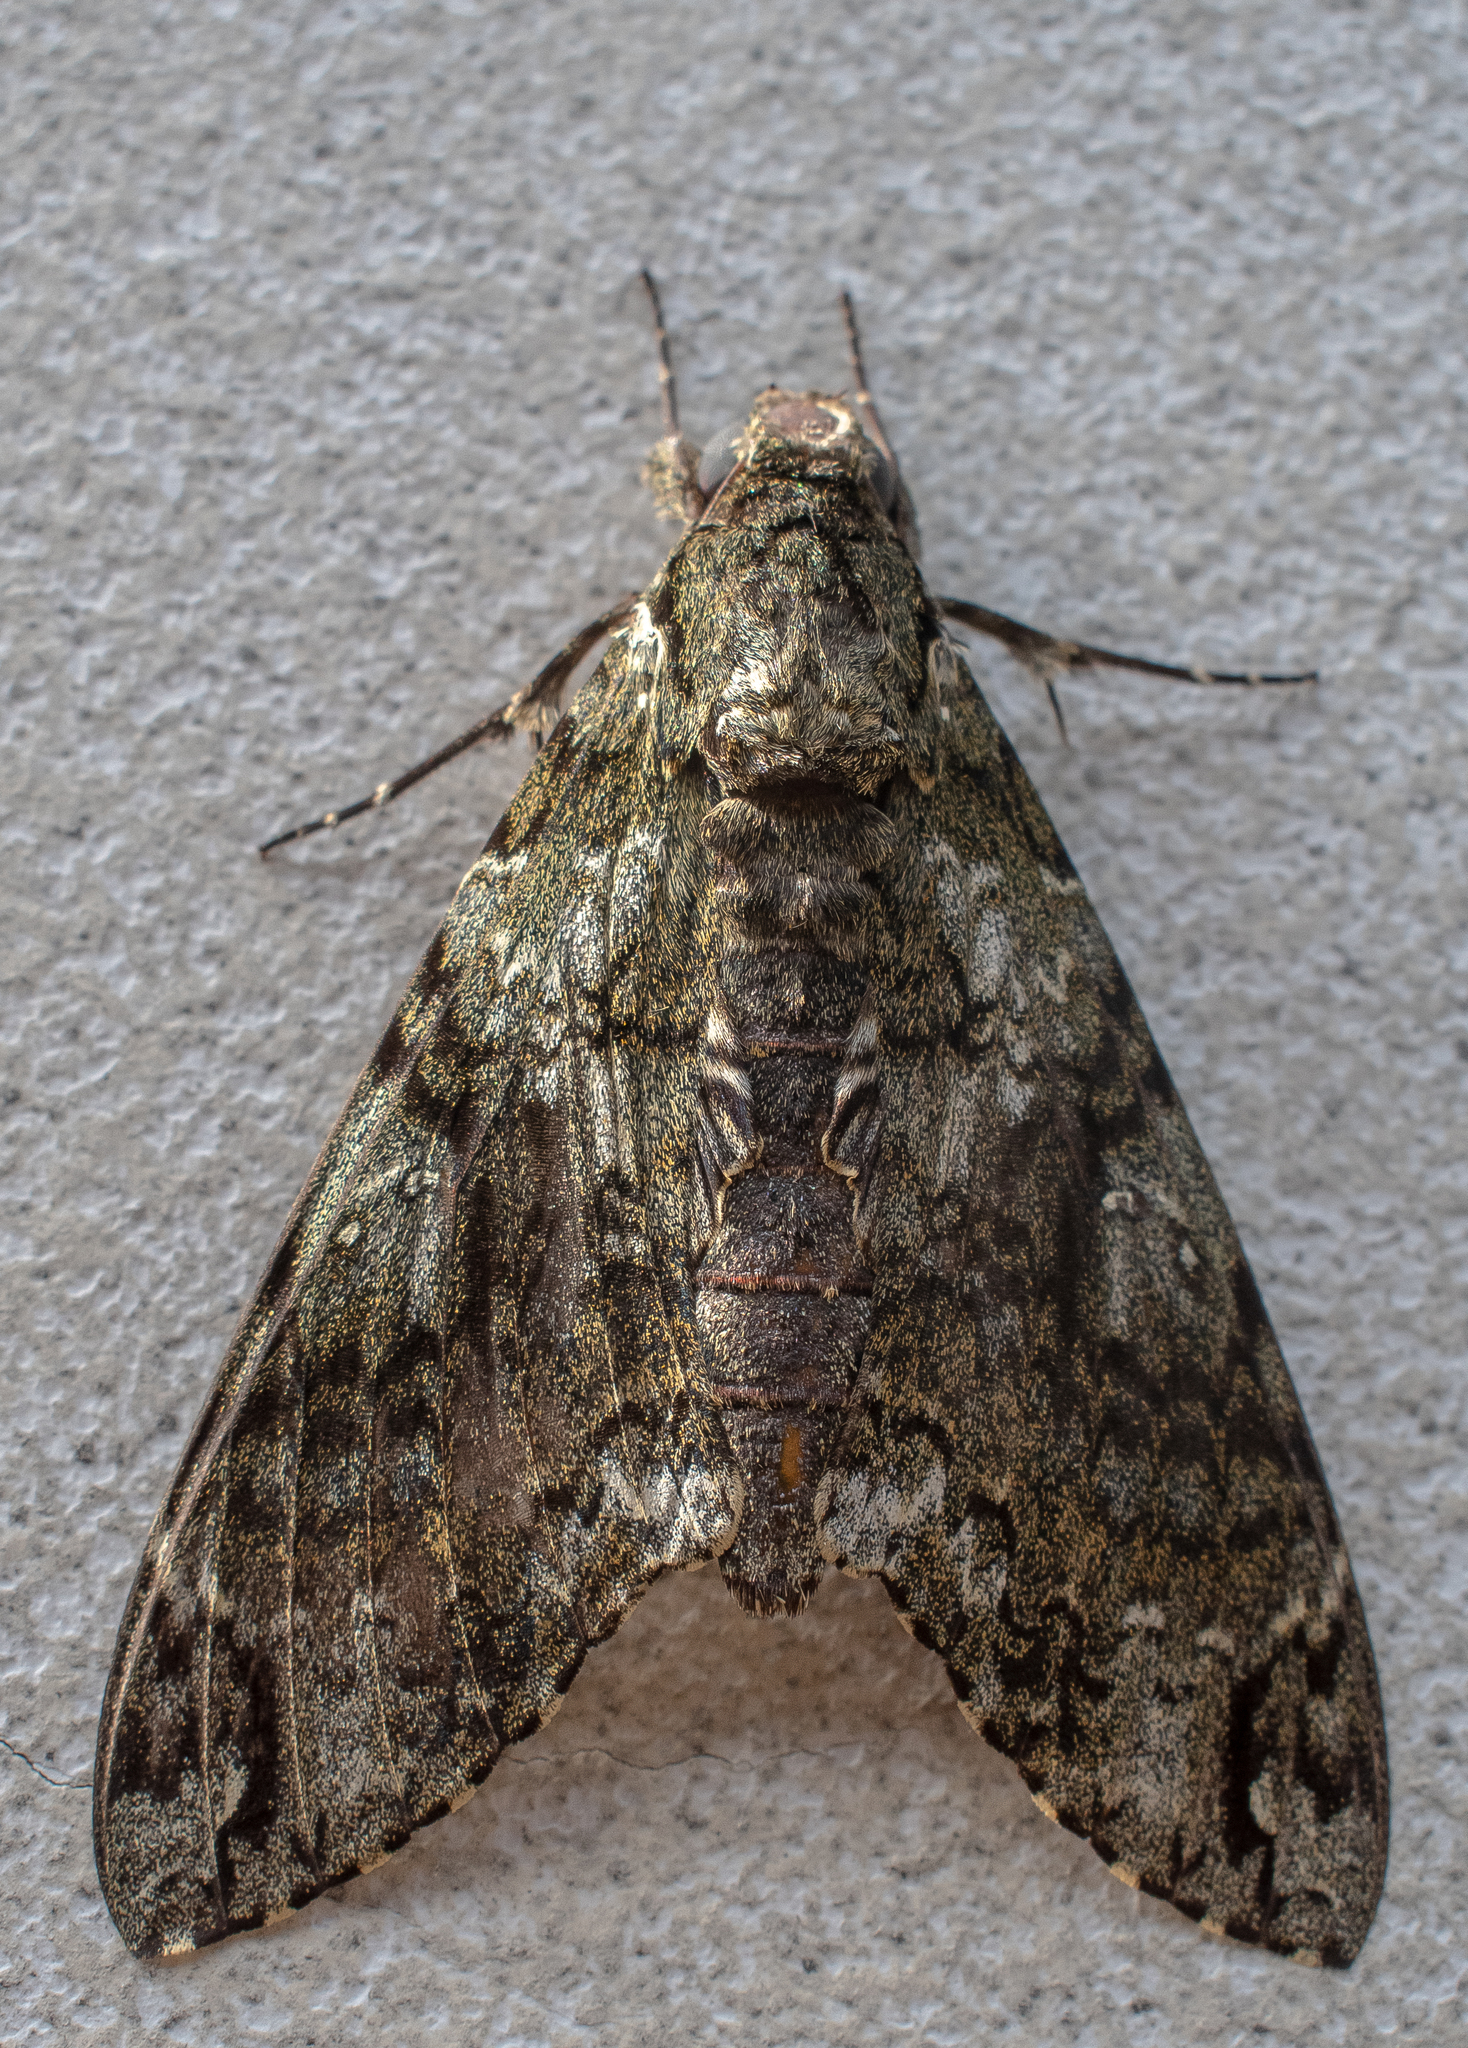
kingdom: Animalia
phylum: Arthropoda
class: Insecta
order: Lepidoptera
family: Sphingidae
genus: Cocytius
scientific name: Cocytius duponchel
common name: Duponchel's sphinx
